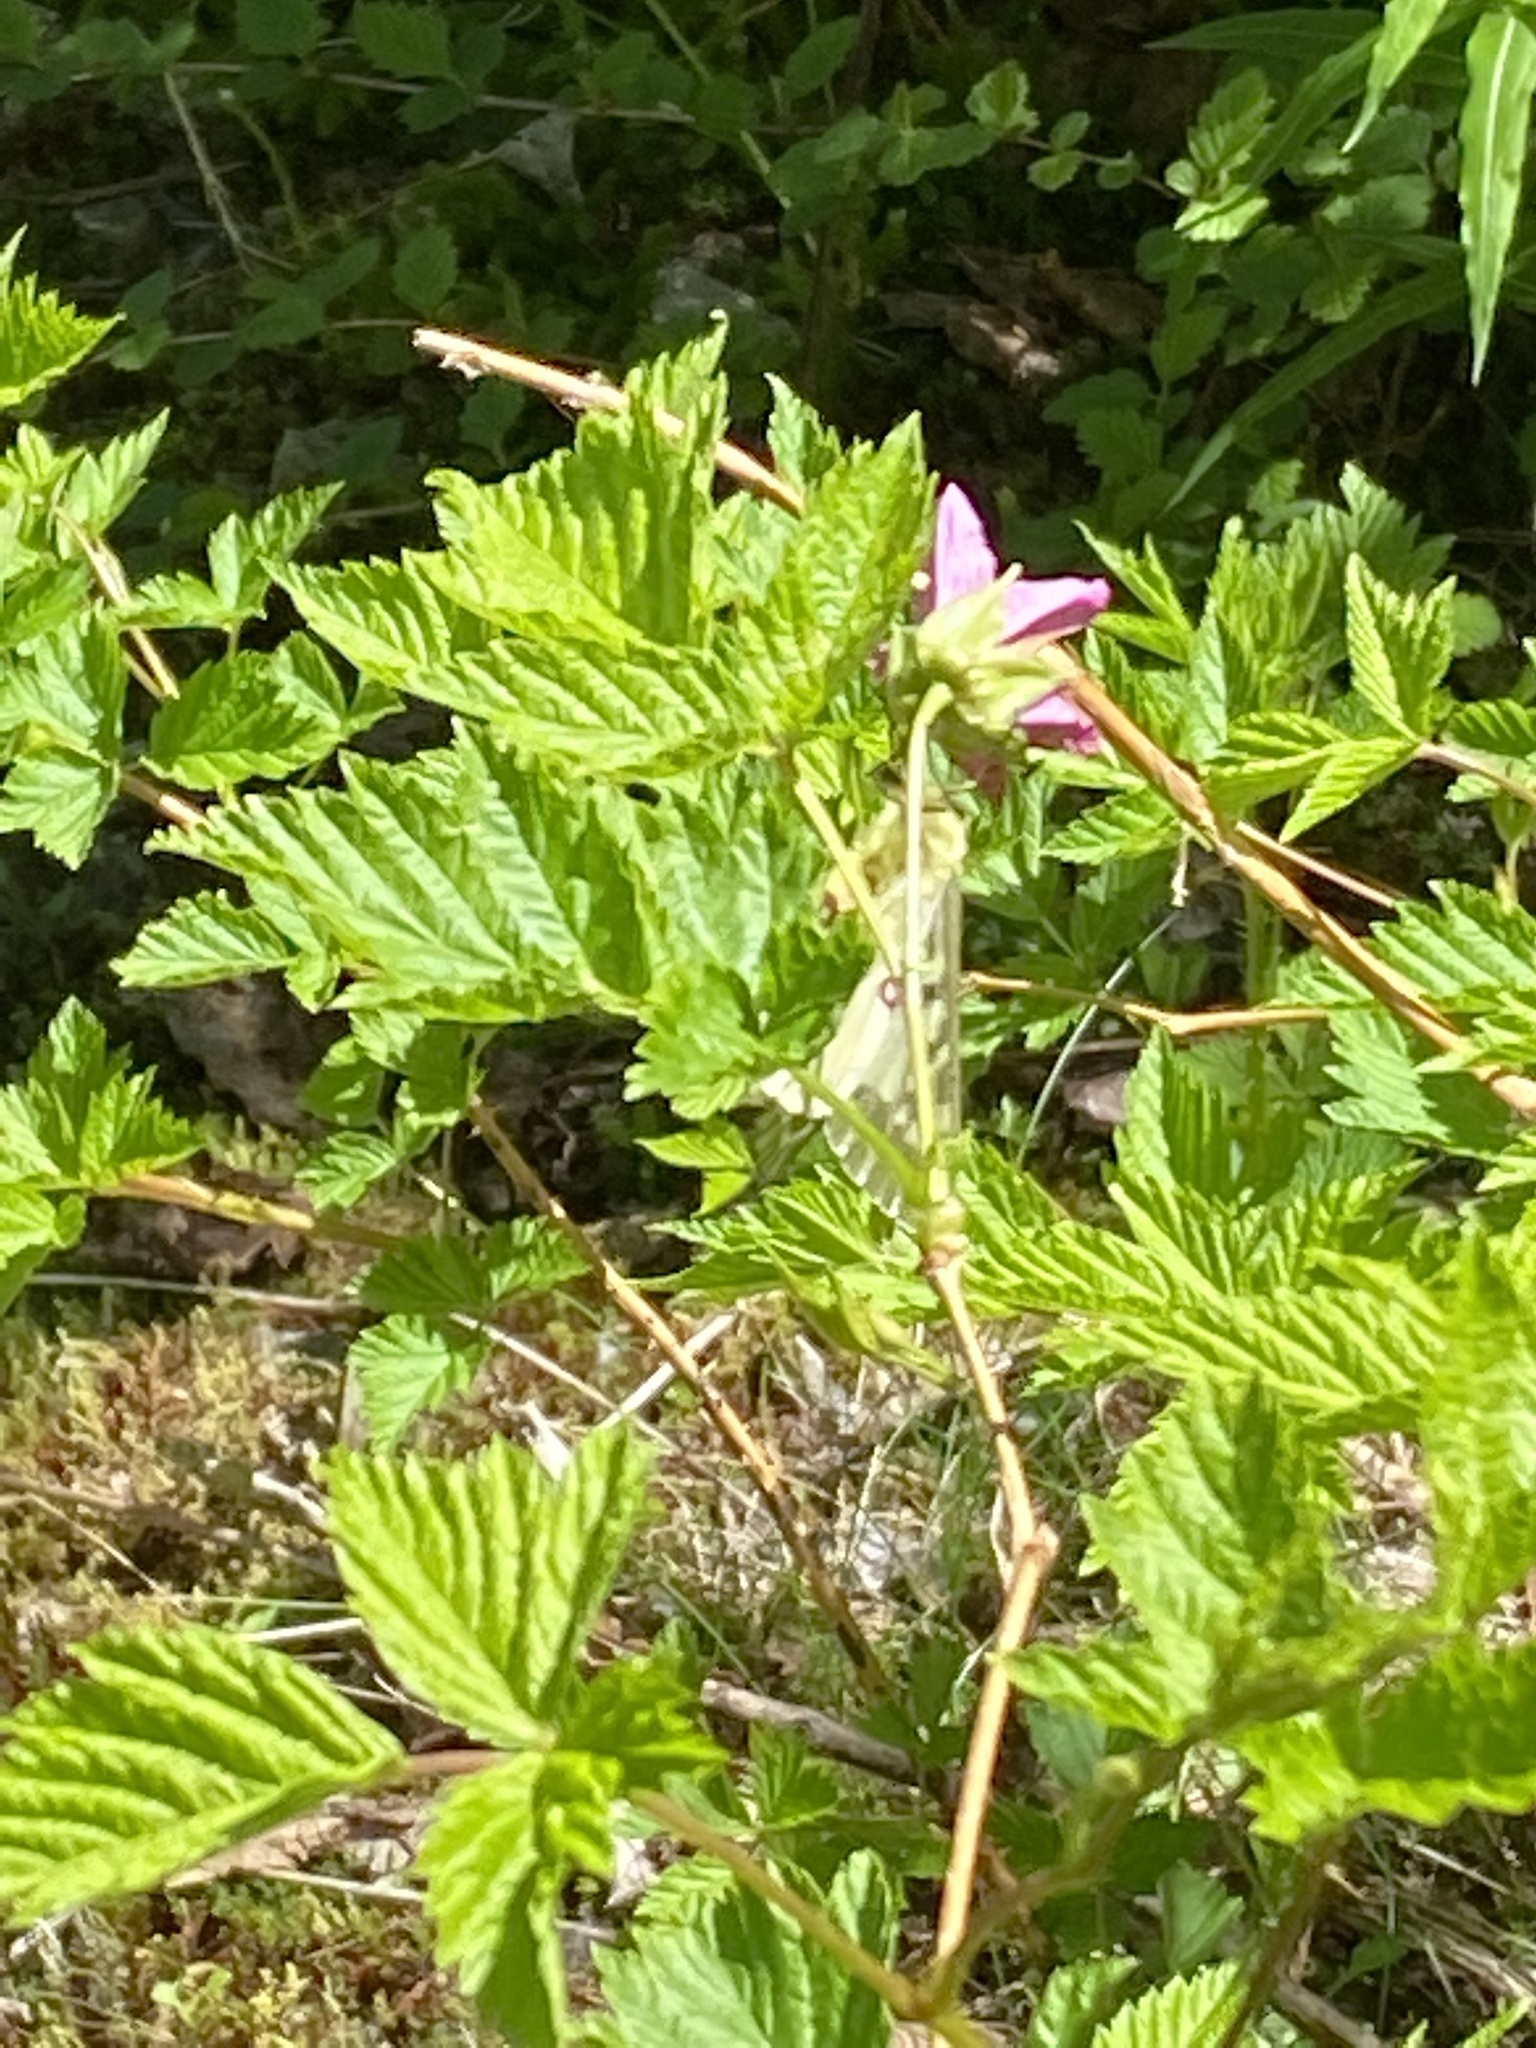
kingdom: Animalia
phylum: Arthropoda
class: Insecta
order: Lepidoptera
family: Papilionidae
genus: Parnassius
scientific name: Parnassius clodius
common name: American apollo
